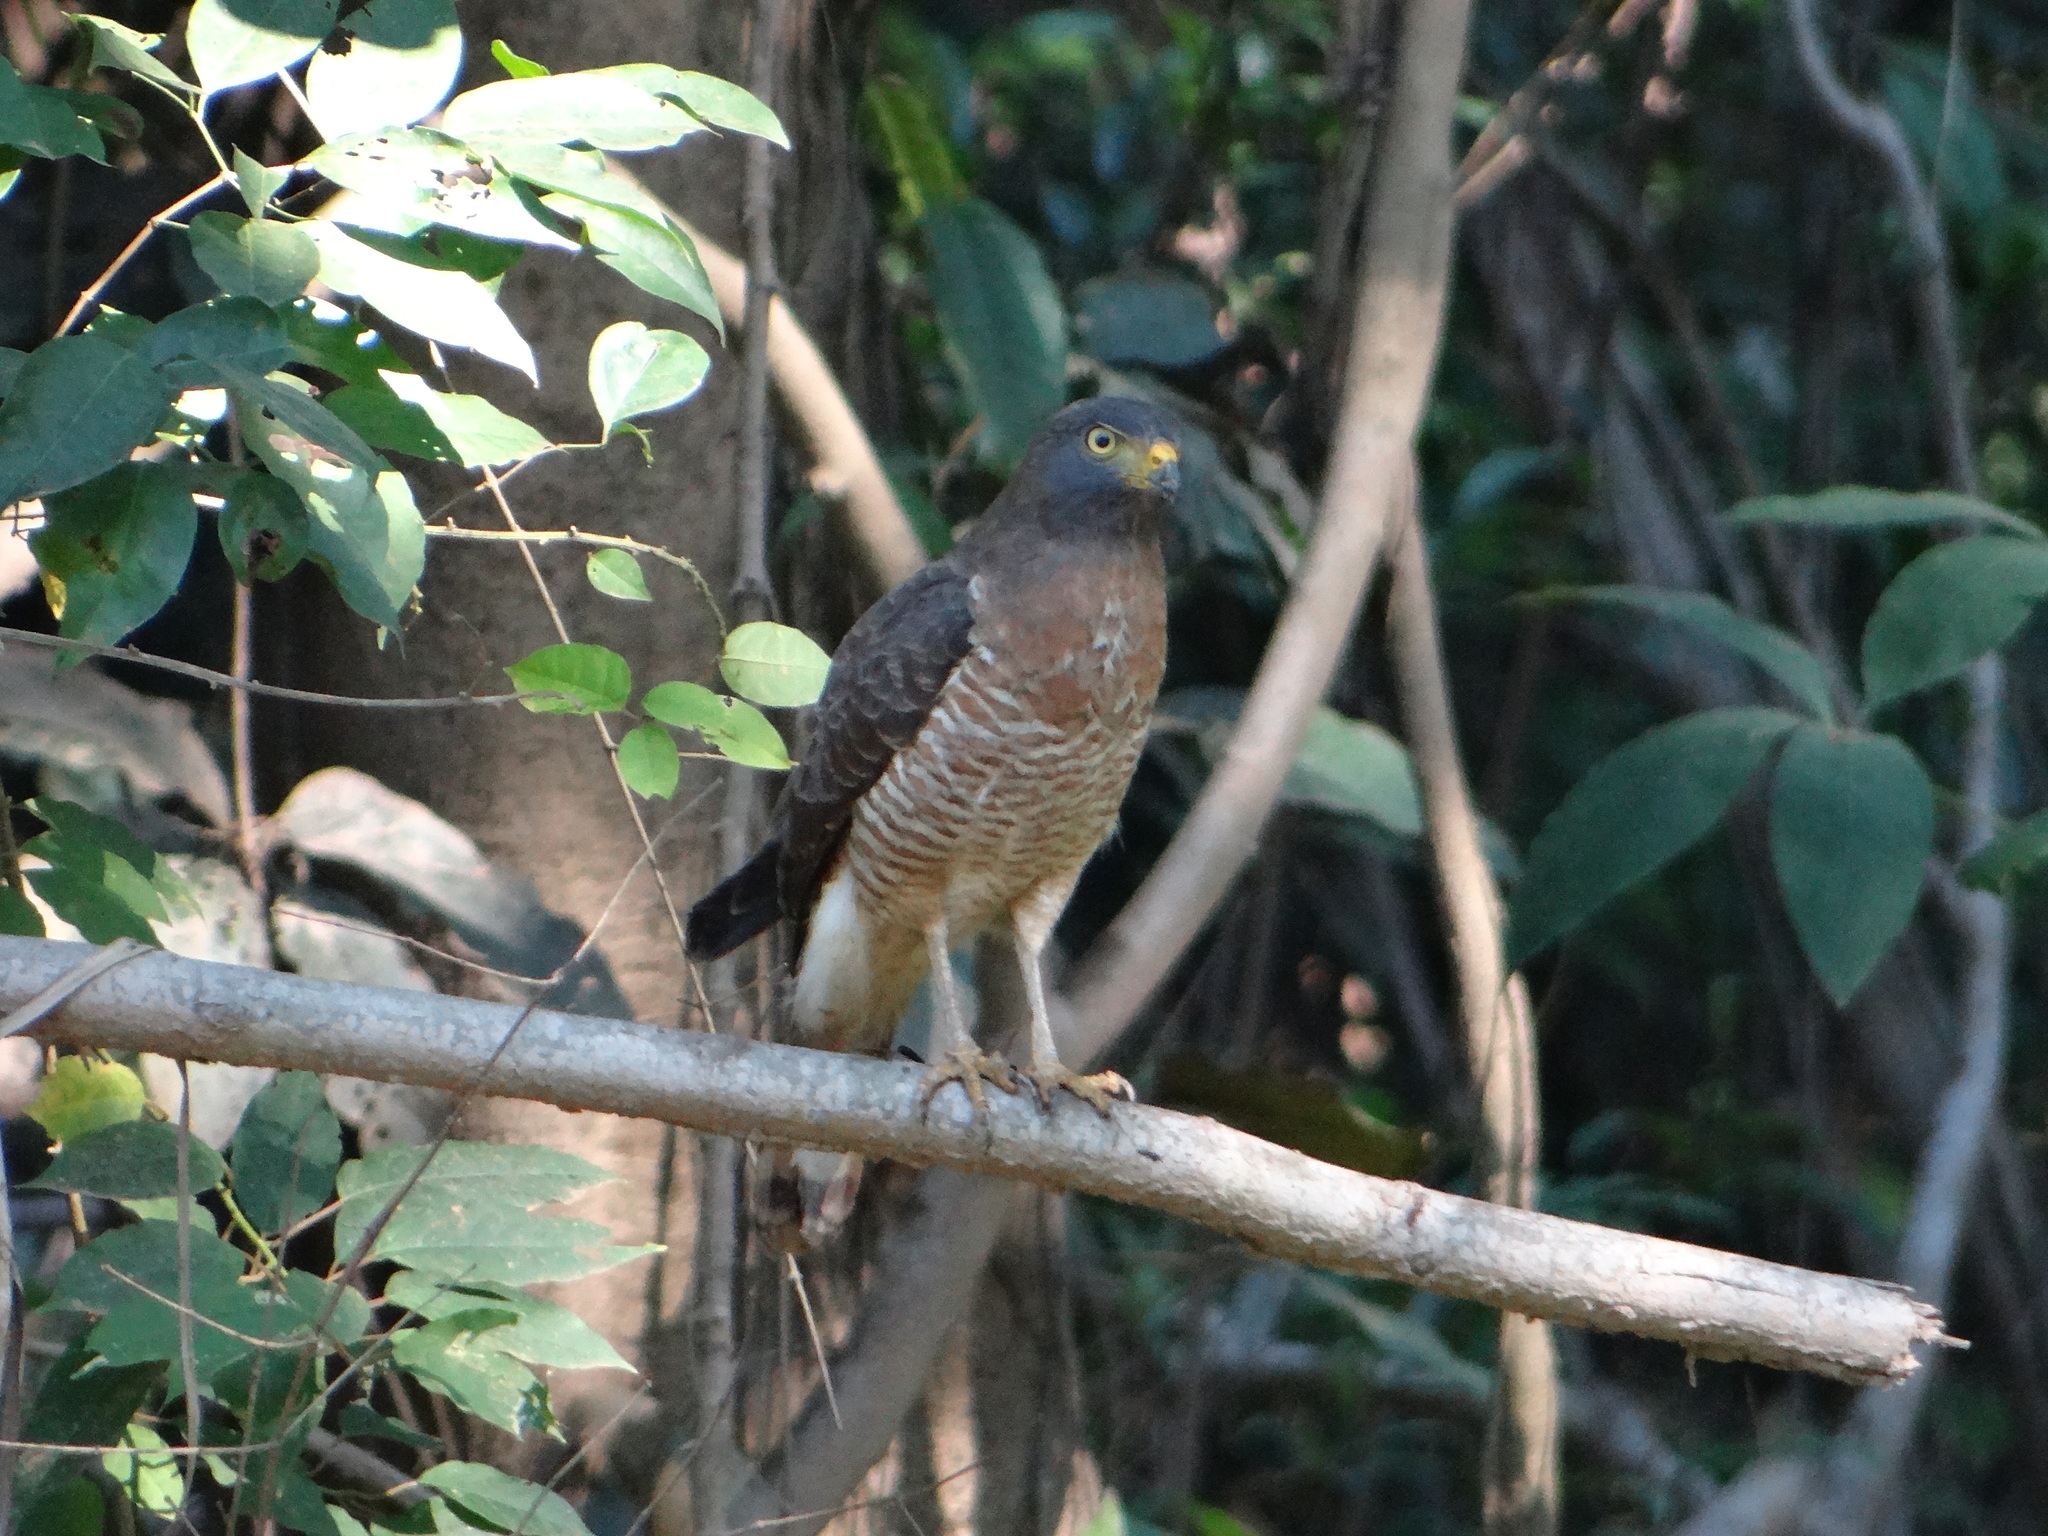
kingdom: Animalia
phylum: Chordata
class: Aves
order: Accipitriformes
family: Accipitridae
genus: Rupornis
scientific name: Rupornis magnirostris
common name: Roadside hawk
